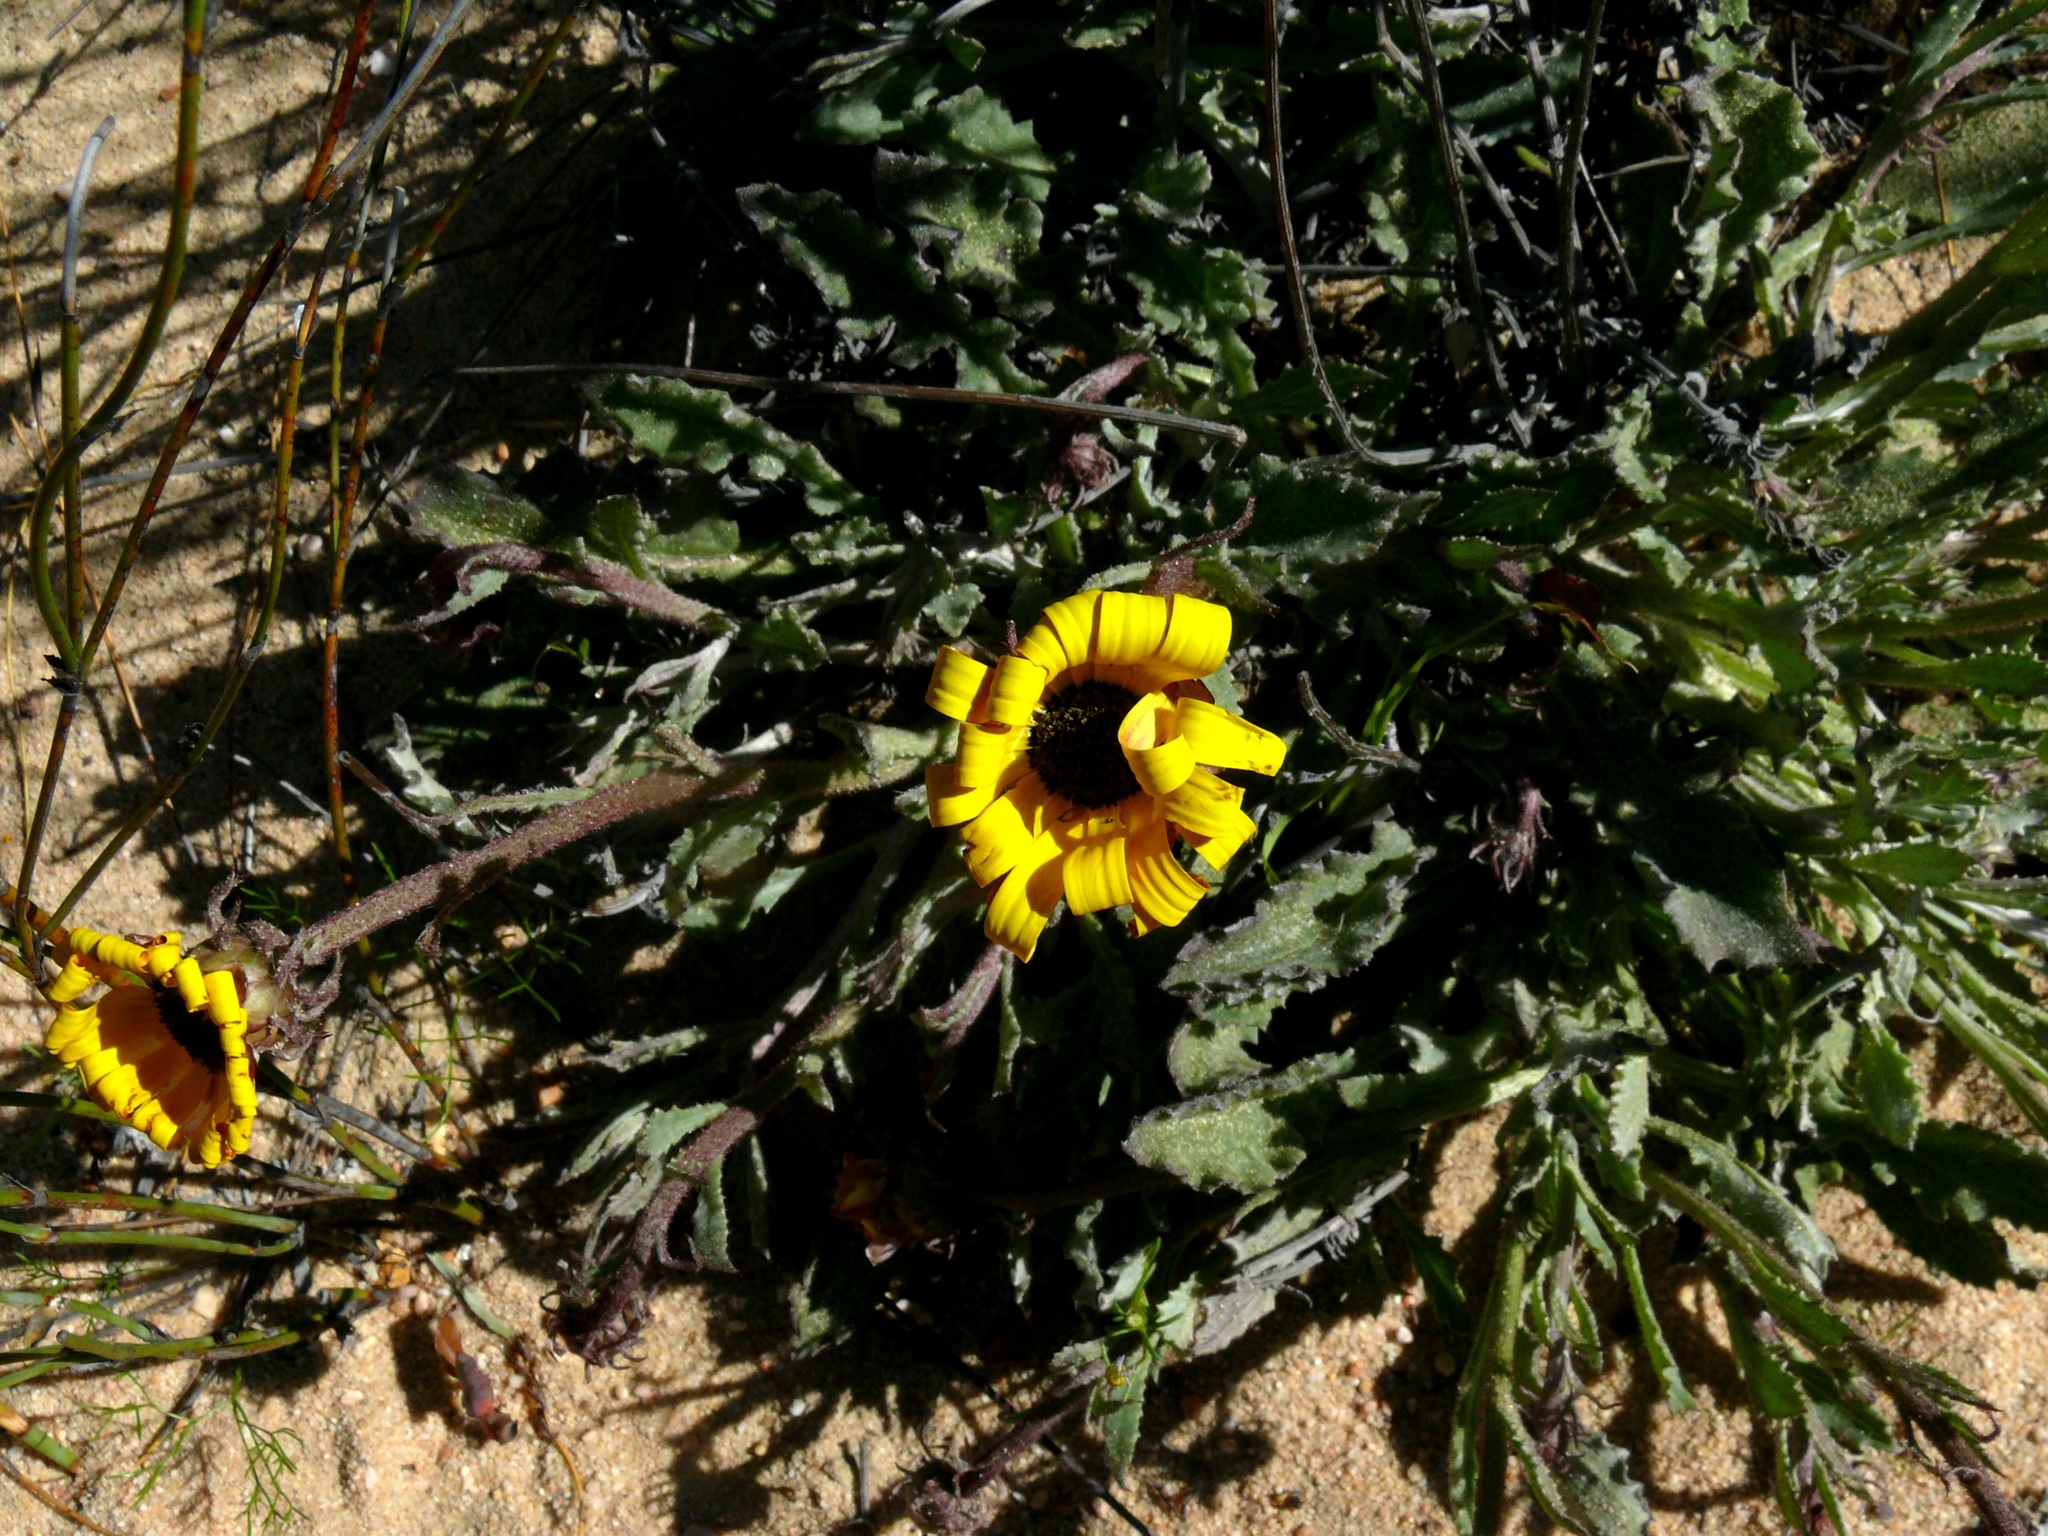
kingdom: Plantae
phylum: Tracheophyta
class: Magnoliopsida
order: Asterales
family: Asteraceae
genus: Arctotis
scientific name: Arctotis breviscapa
